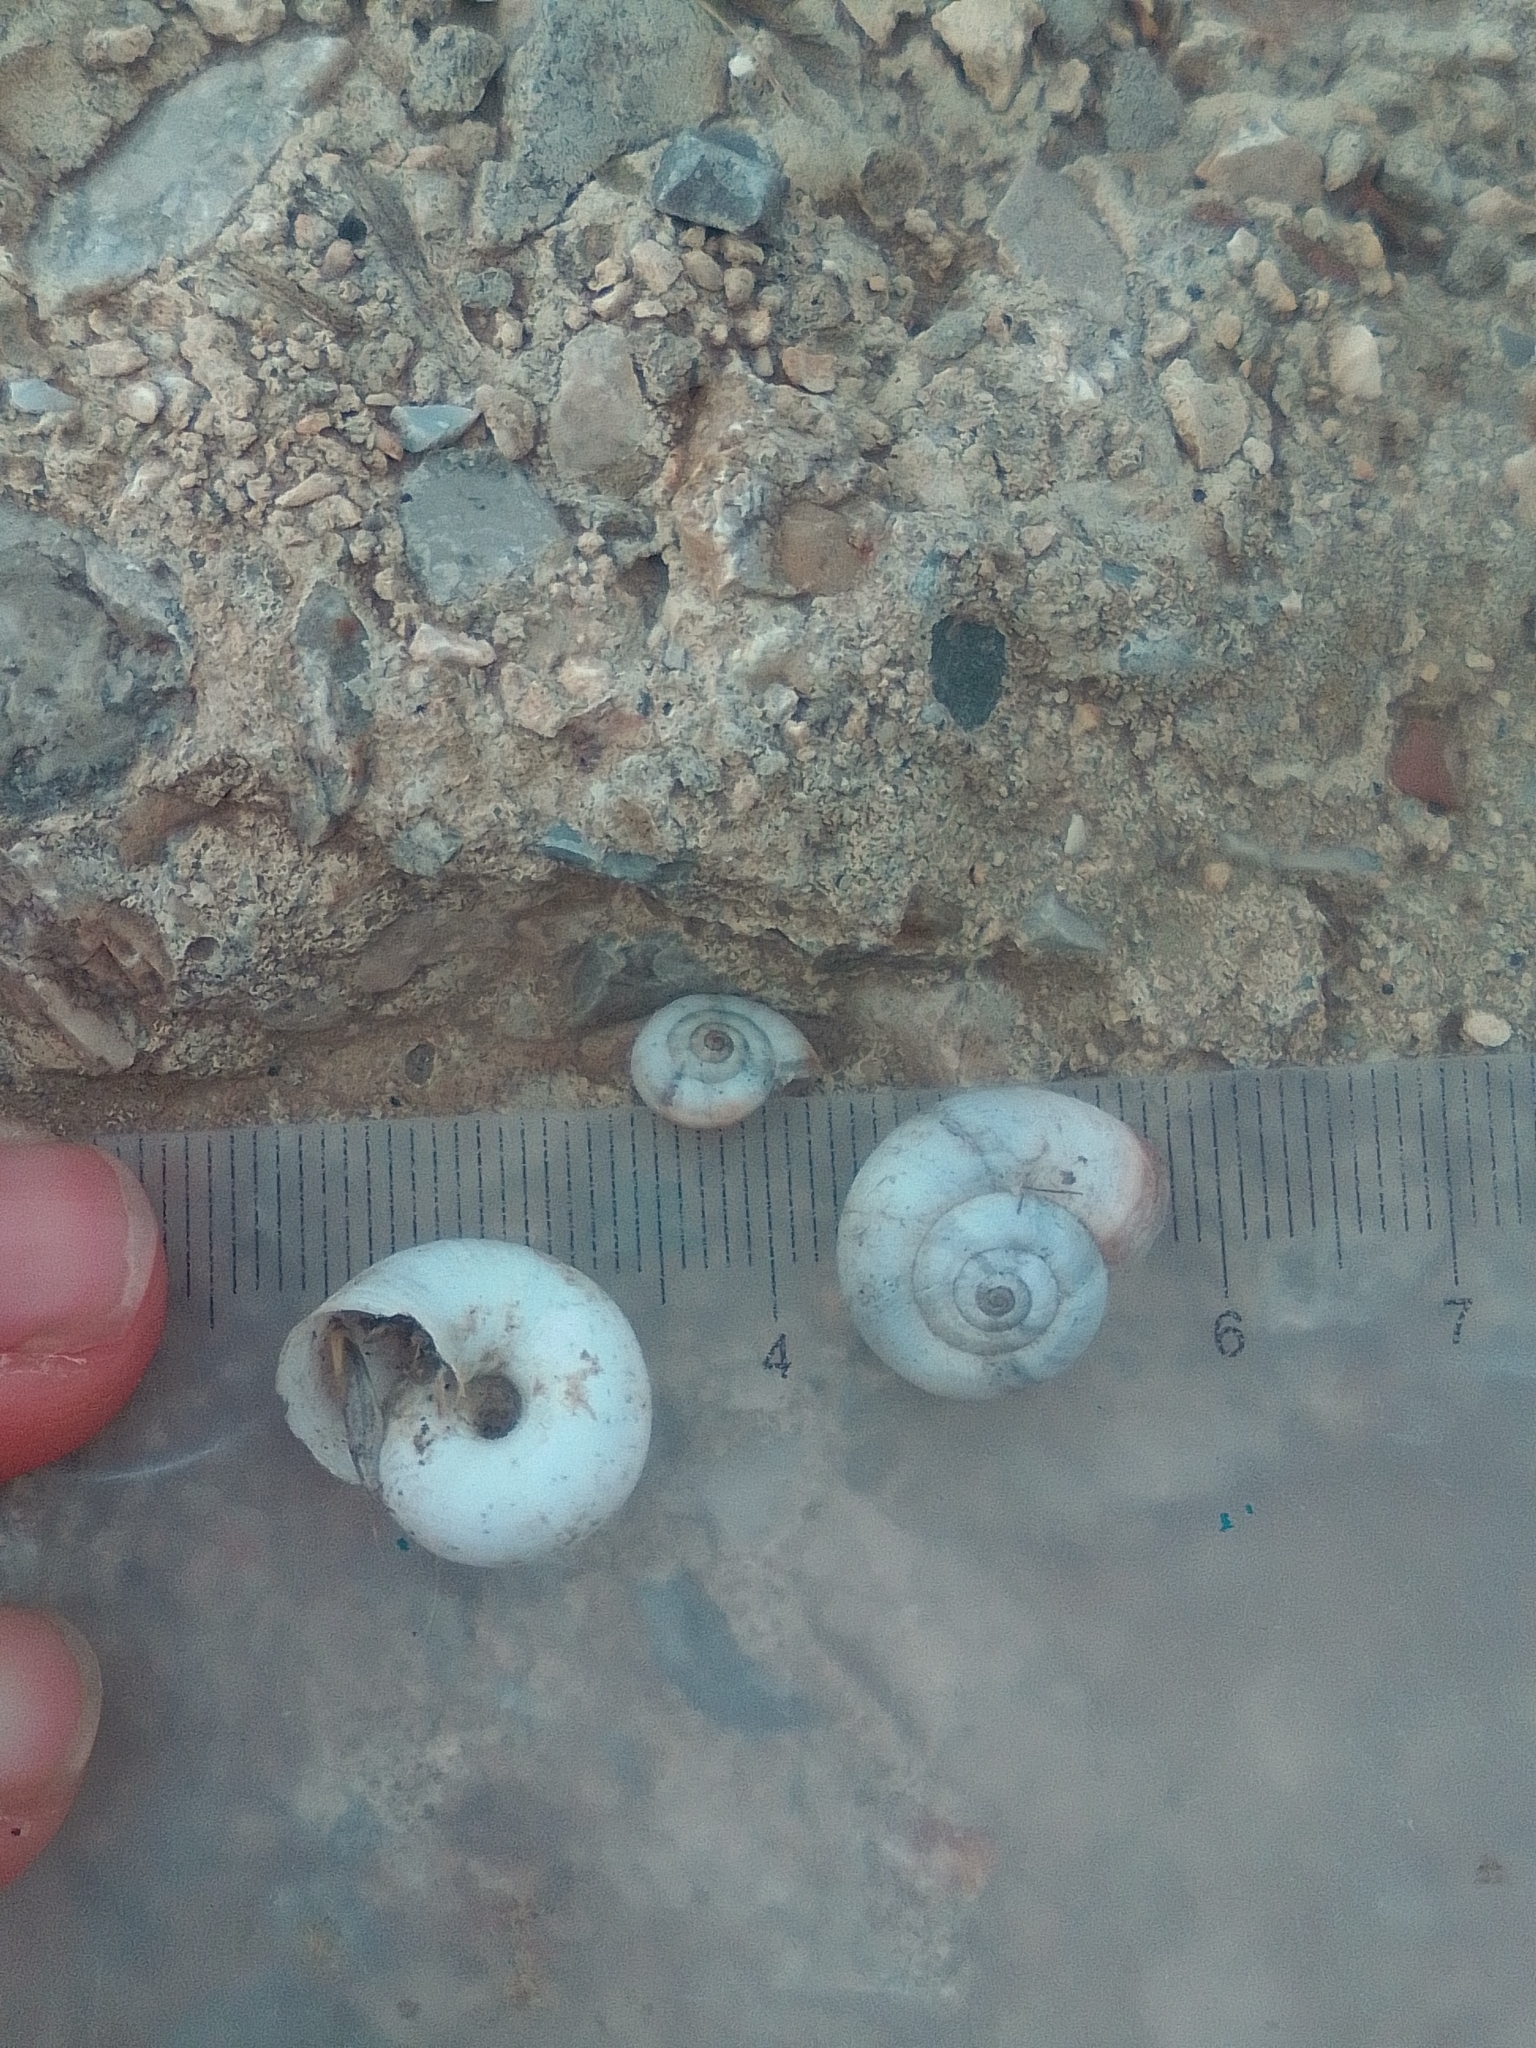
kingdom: Animalia
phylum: Mollusca
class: Gastropoda
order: Stylommatophora
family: Geomitridae
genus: Xeropicta
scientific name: Xeropicta derbentina
